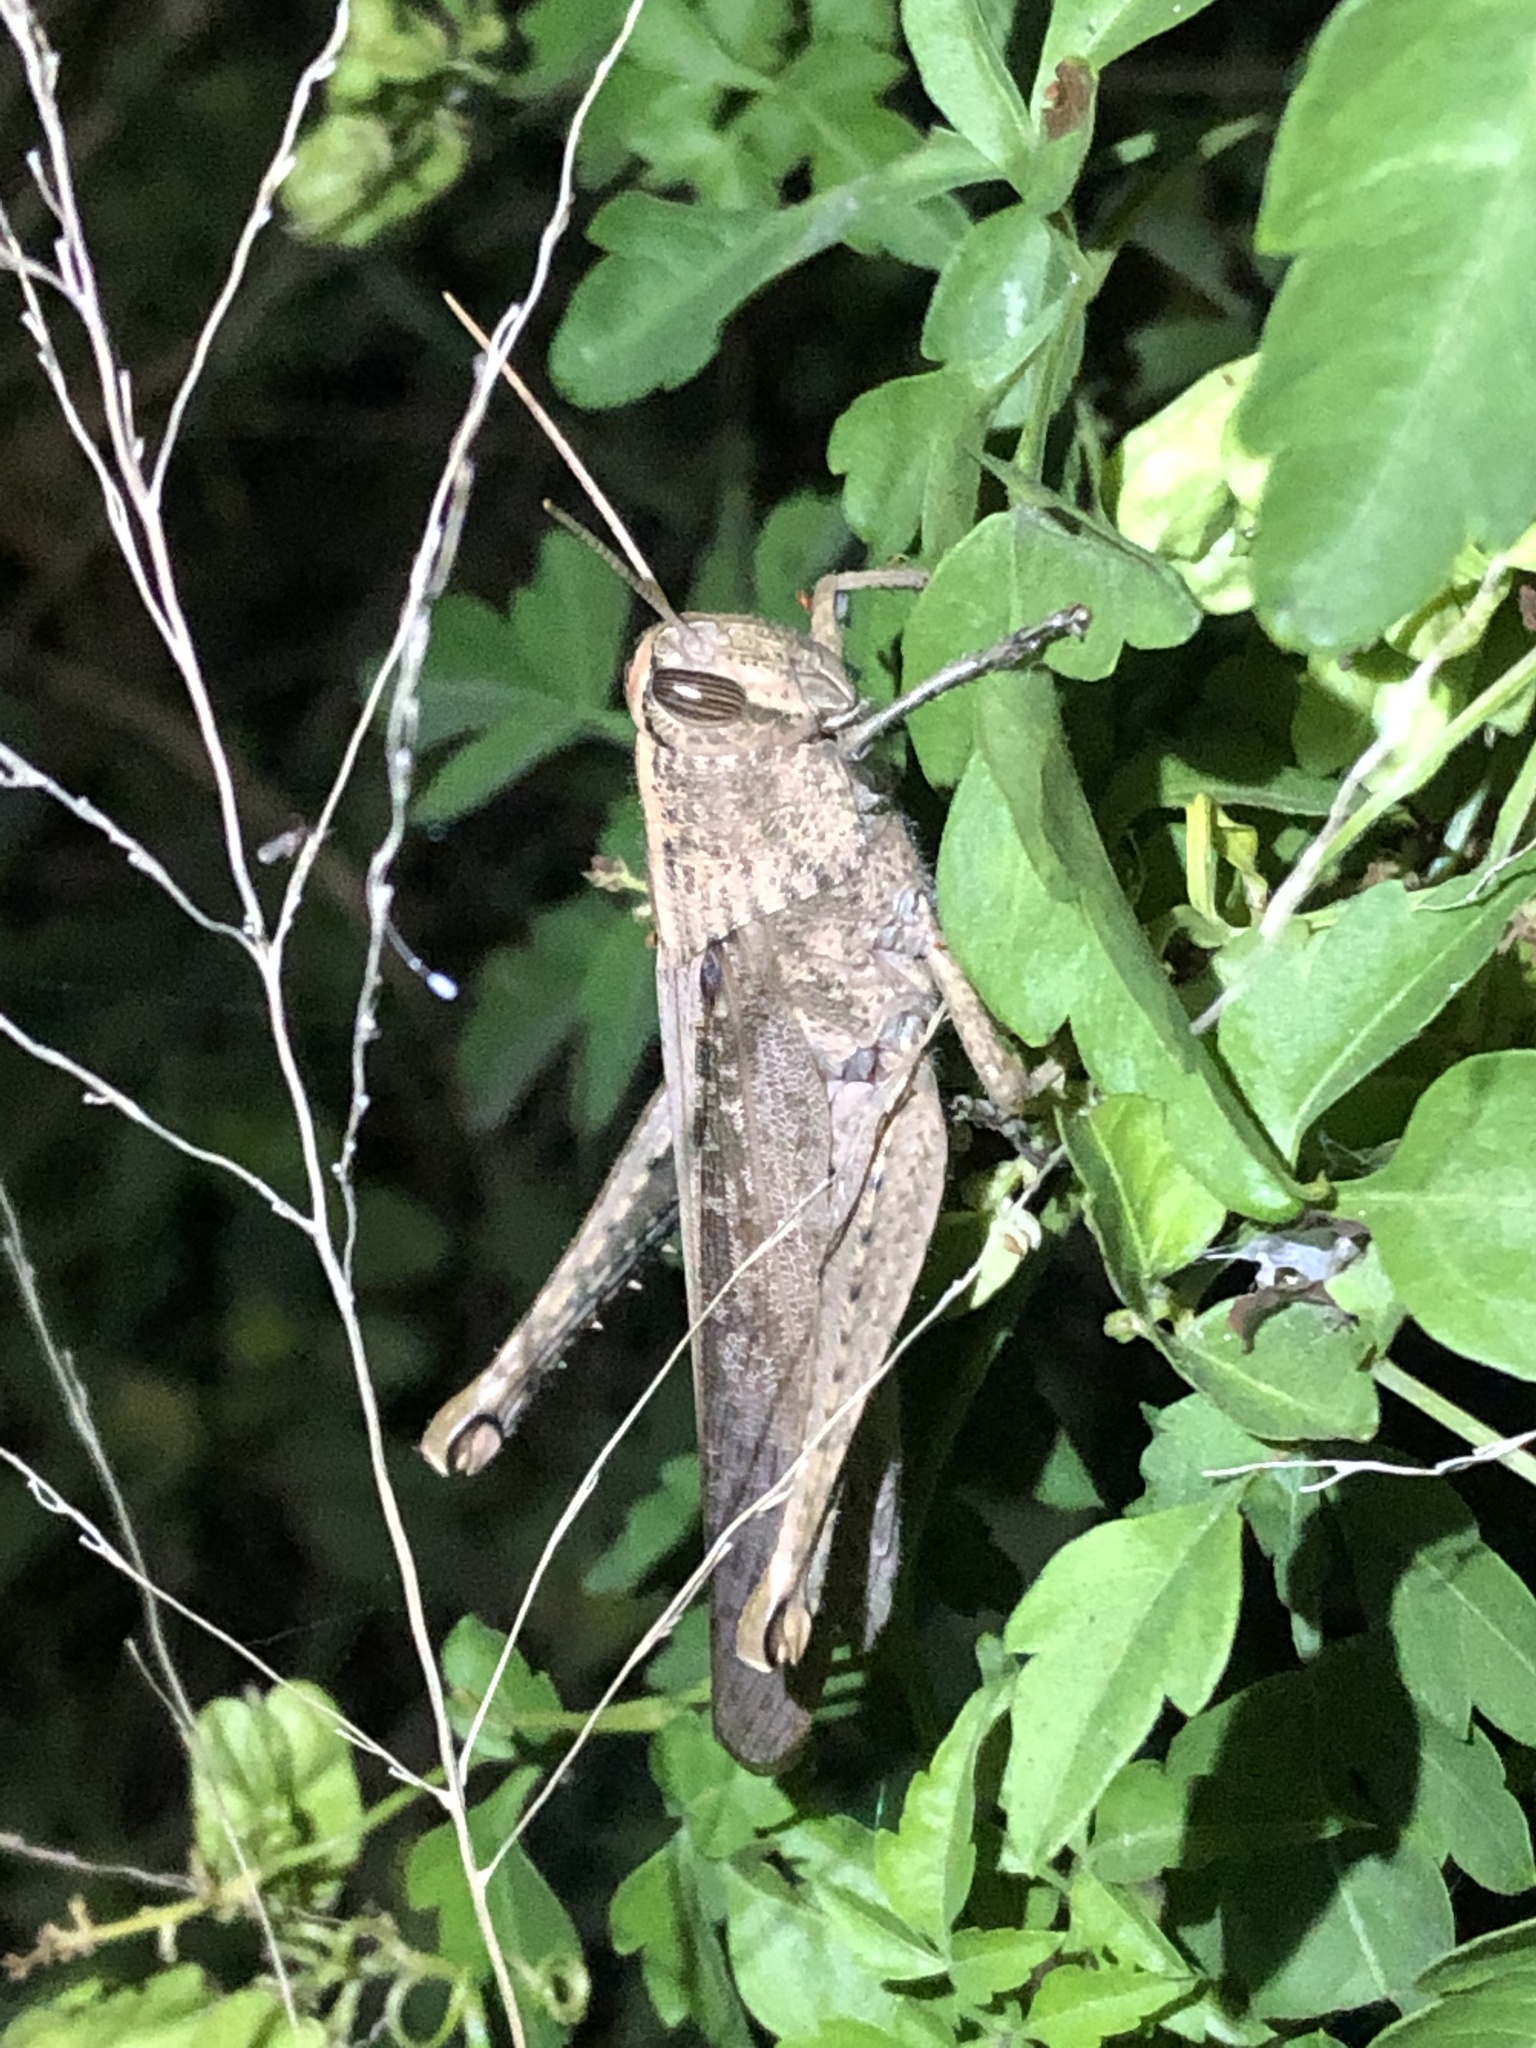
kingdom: Animalia
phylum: Arthropoda
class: Insecta
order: Orthoptera
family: Acrididae
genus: Schistocerca
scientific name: Schistocerca impleta
